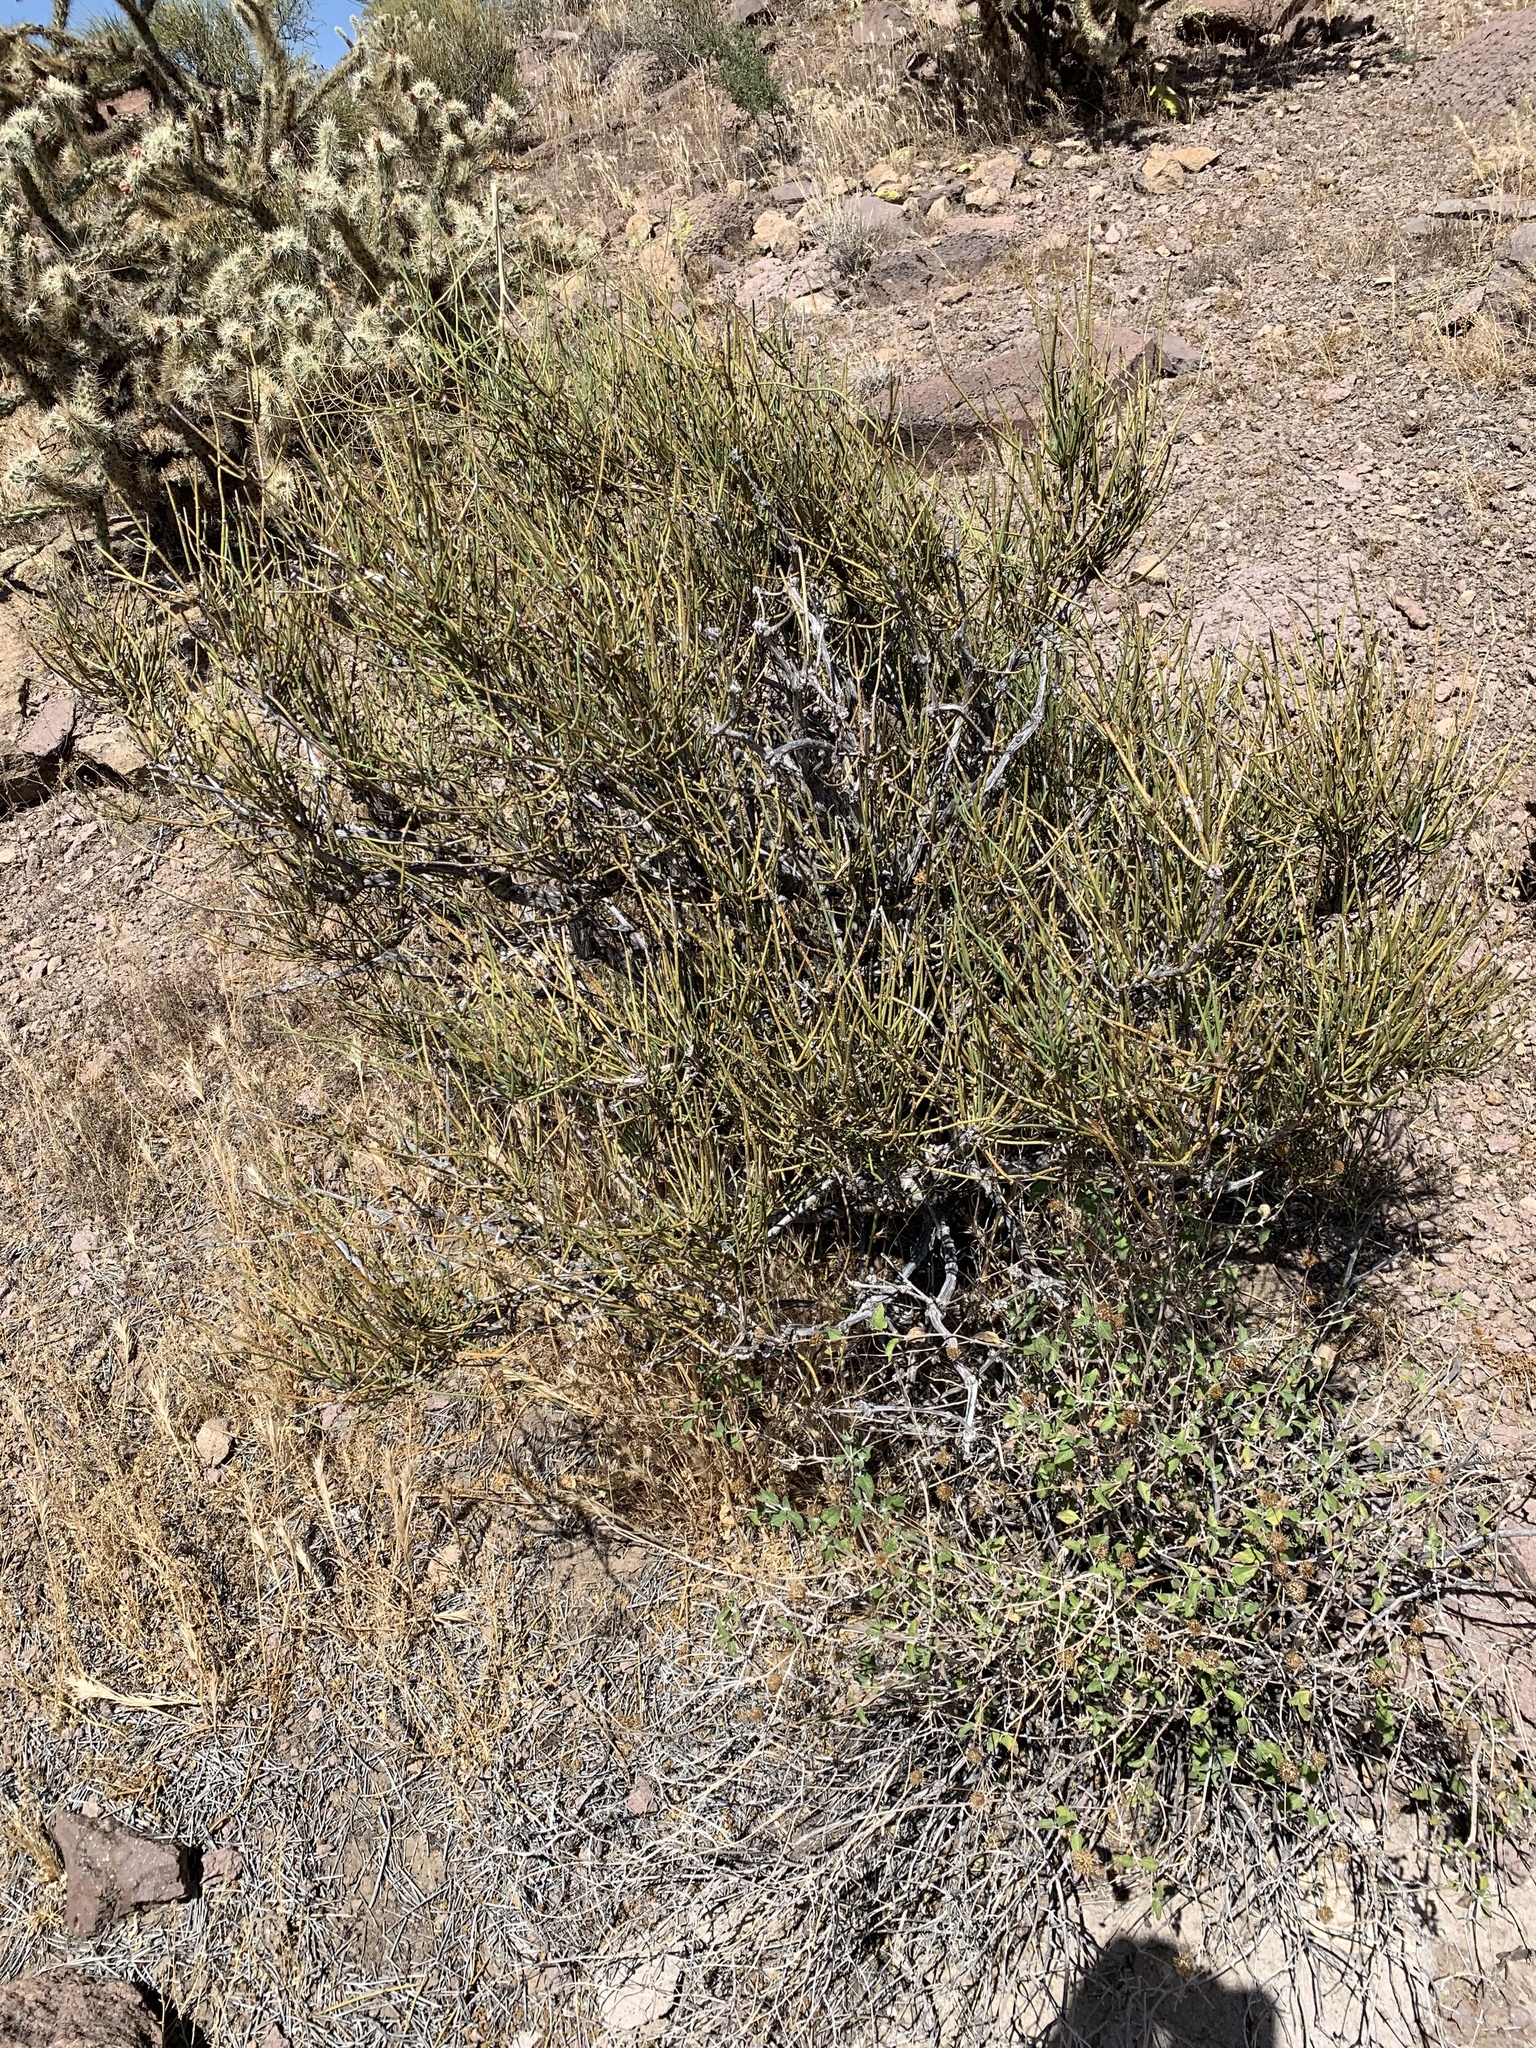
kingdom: Plantae
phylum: Tracheophyta
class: Gnetopsida
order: Ephedrales
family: Ephedraceae
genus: Ephedra
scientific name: Ephedra aspera
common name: Boundary ephedra
